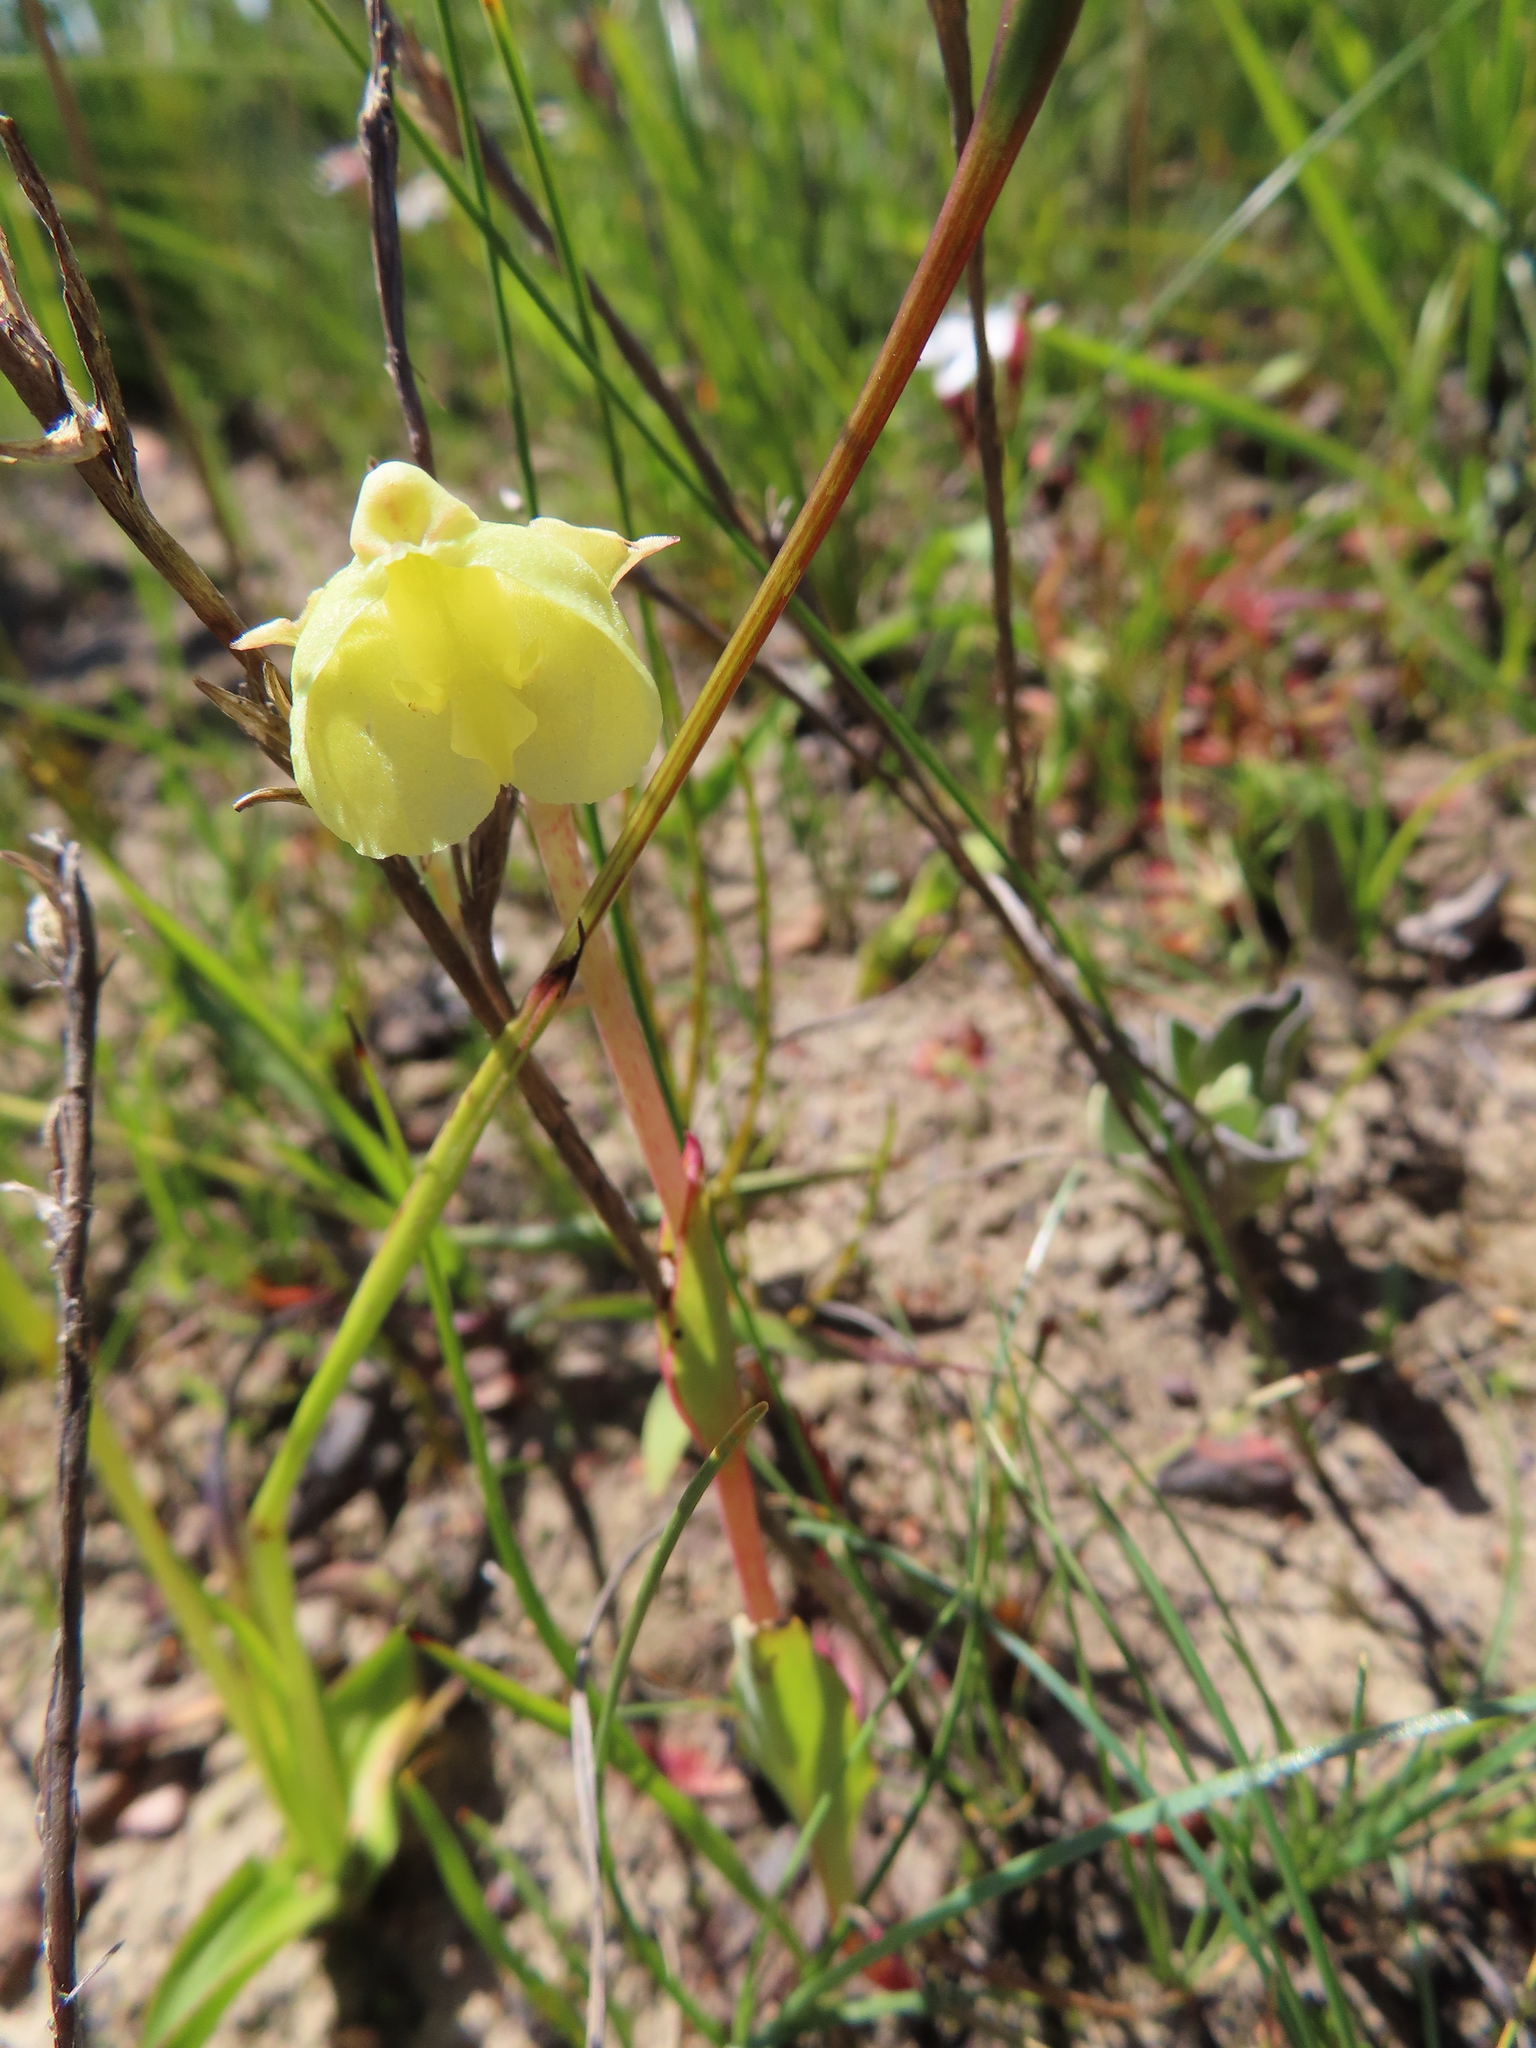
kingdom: Plantae
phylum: Tracheophyta
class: Liliopsida
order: Asparagales
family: Orchidaceae
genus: Pterygodium
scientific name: Pterygodium catholicum
